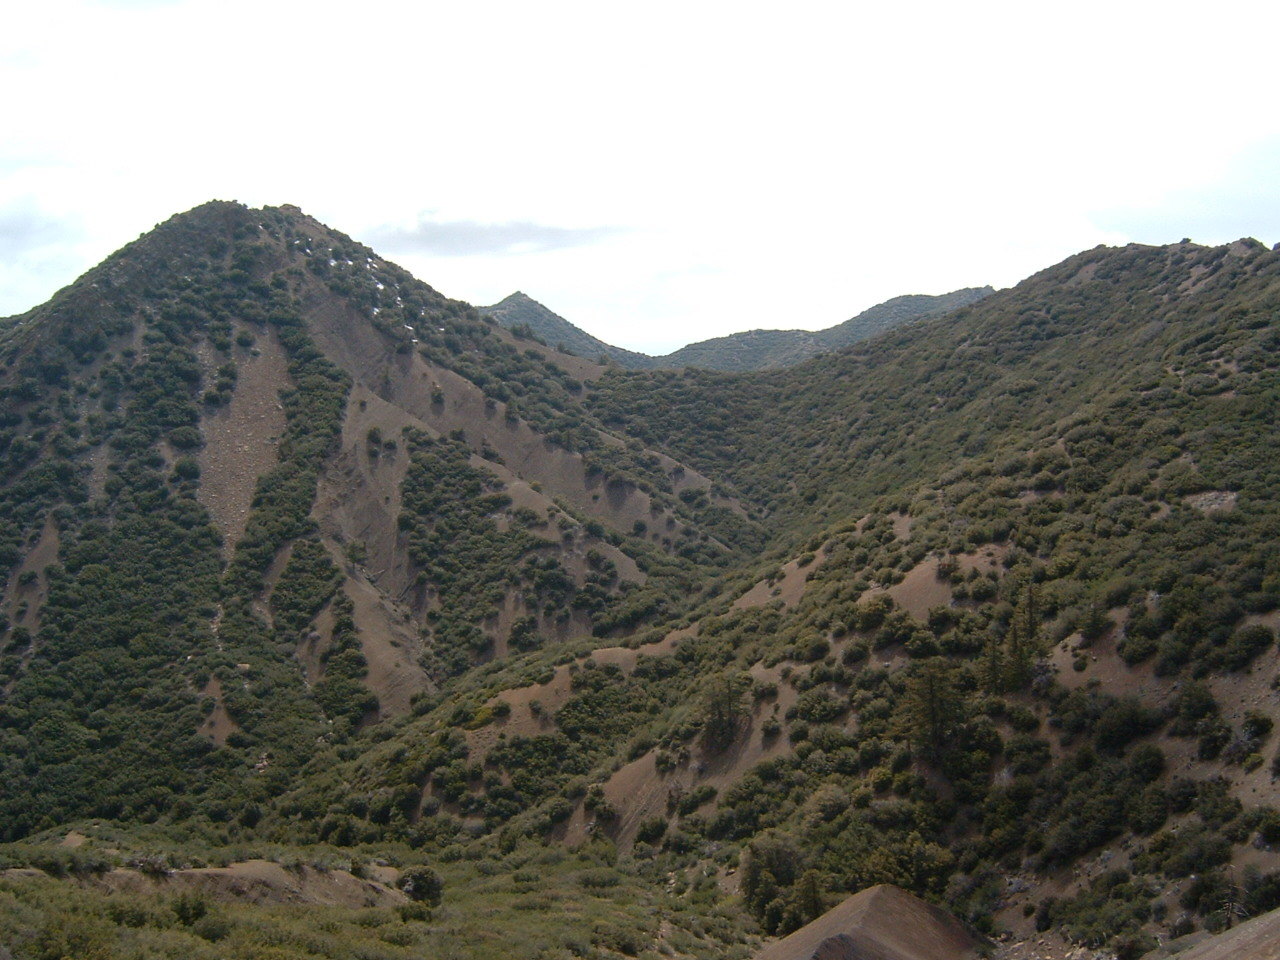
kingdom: Plantae
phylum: Tracheophyta
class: Pinopsida
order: Pinales
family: Pinaceae
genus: Pseudotsuga
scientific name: Pseudotsuga macrocarpa
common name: Big-cone douglas-fir
